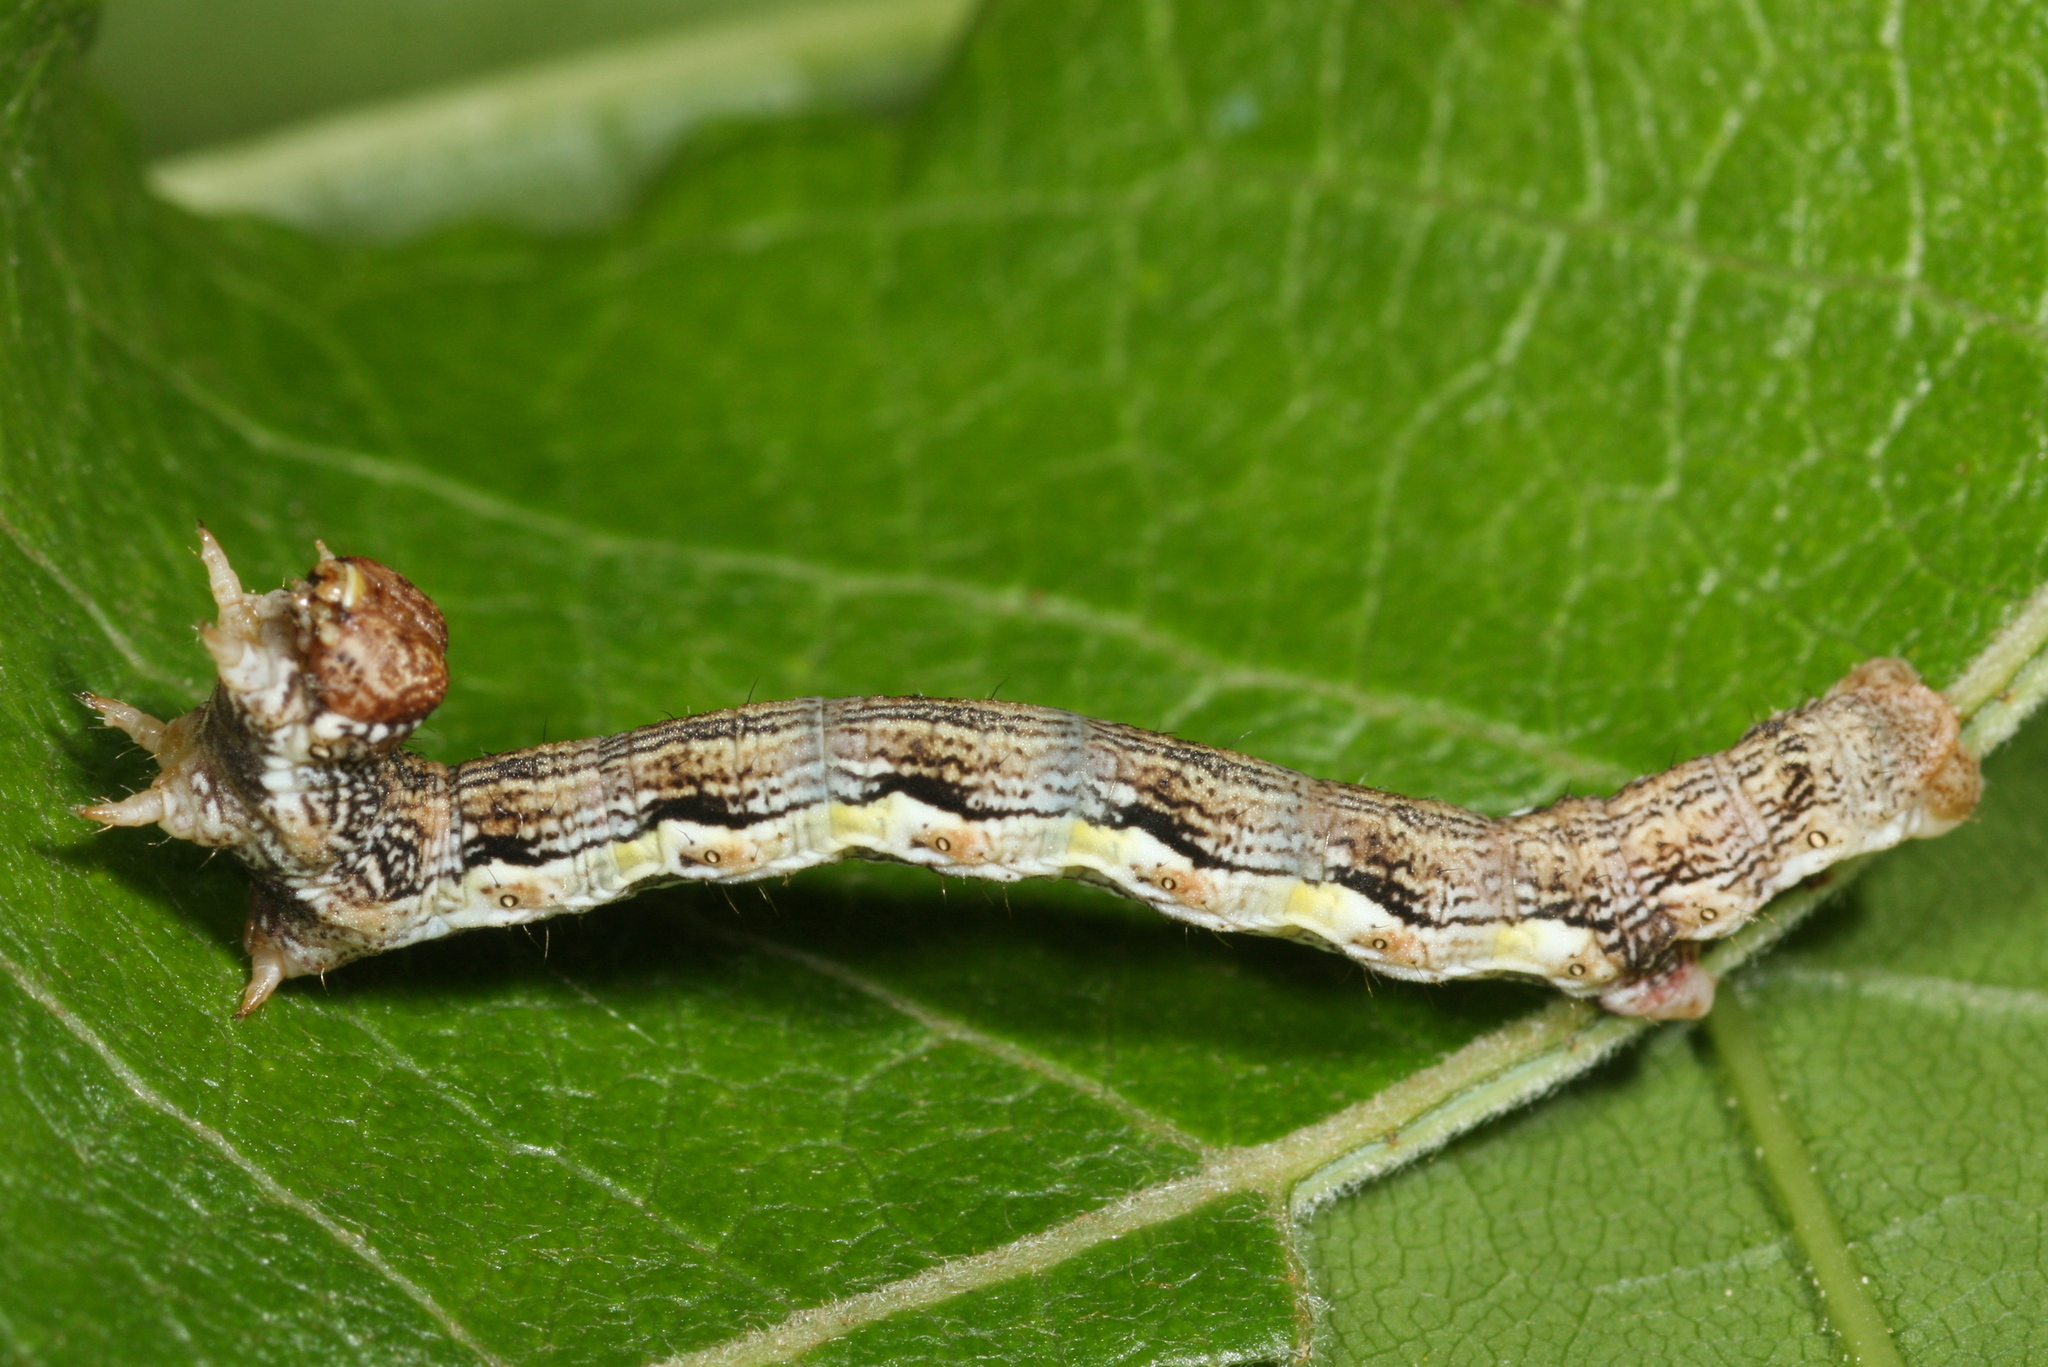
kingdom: Animalia
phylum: Arthropoda
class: Insecta
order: Lepidoptera
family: Geometridae
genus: Erannis
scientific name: Erannis defoliaria
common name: Mottled umber
